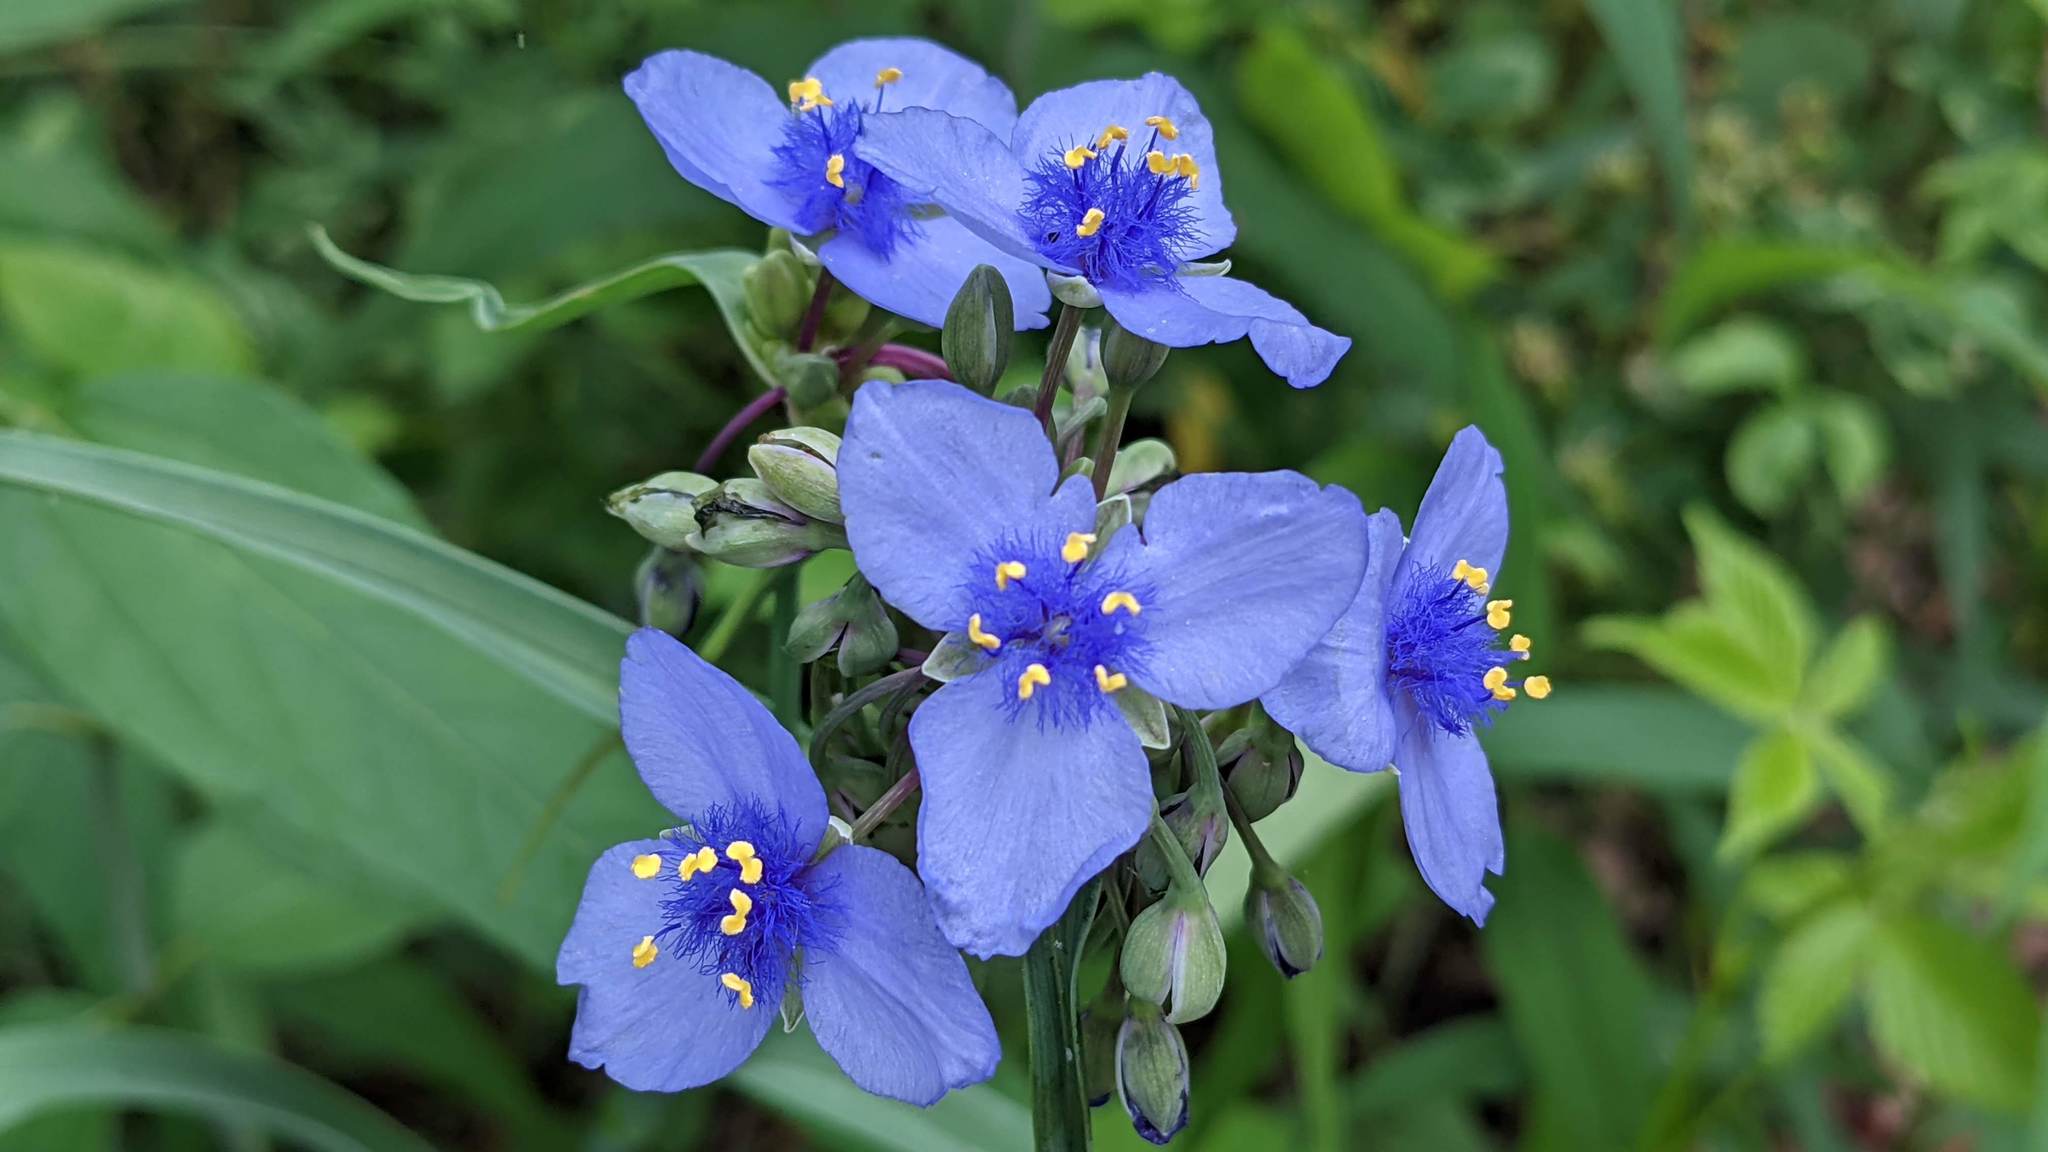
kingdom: Plantae
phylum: Tracheophyta
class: Liliopsida
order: Commelinales
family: Commelinaceae
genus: Tradescantia
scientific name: Tradescantia ohiensis
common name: Ohio spiderwort
